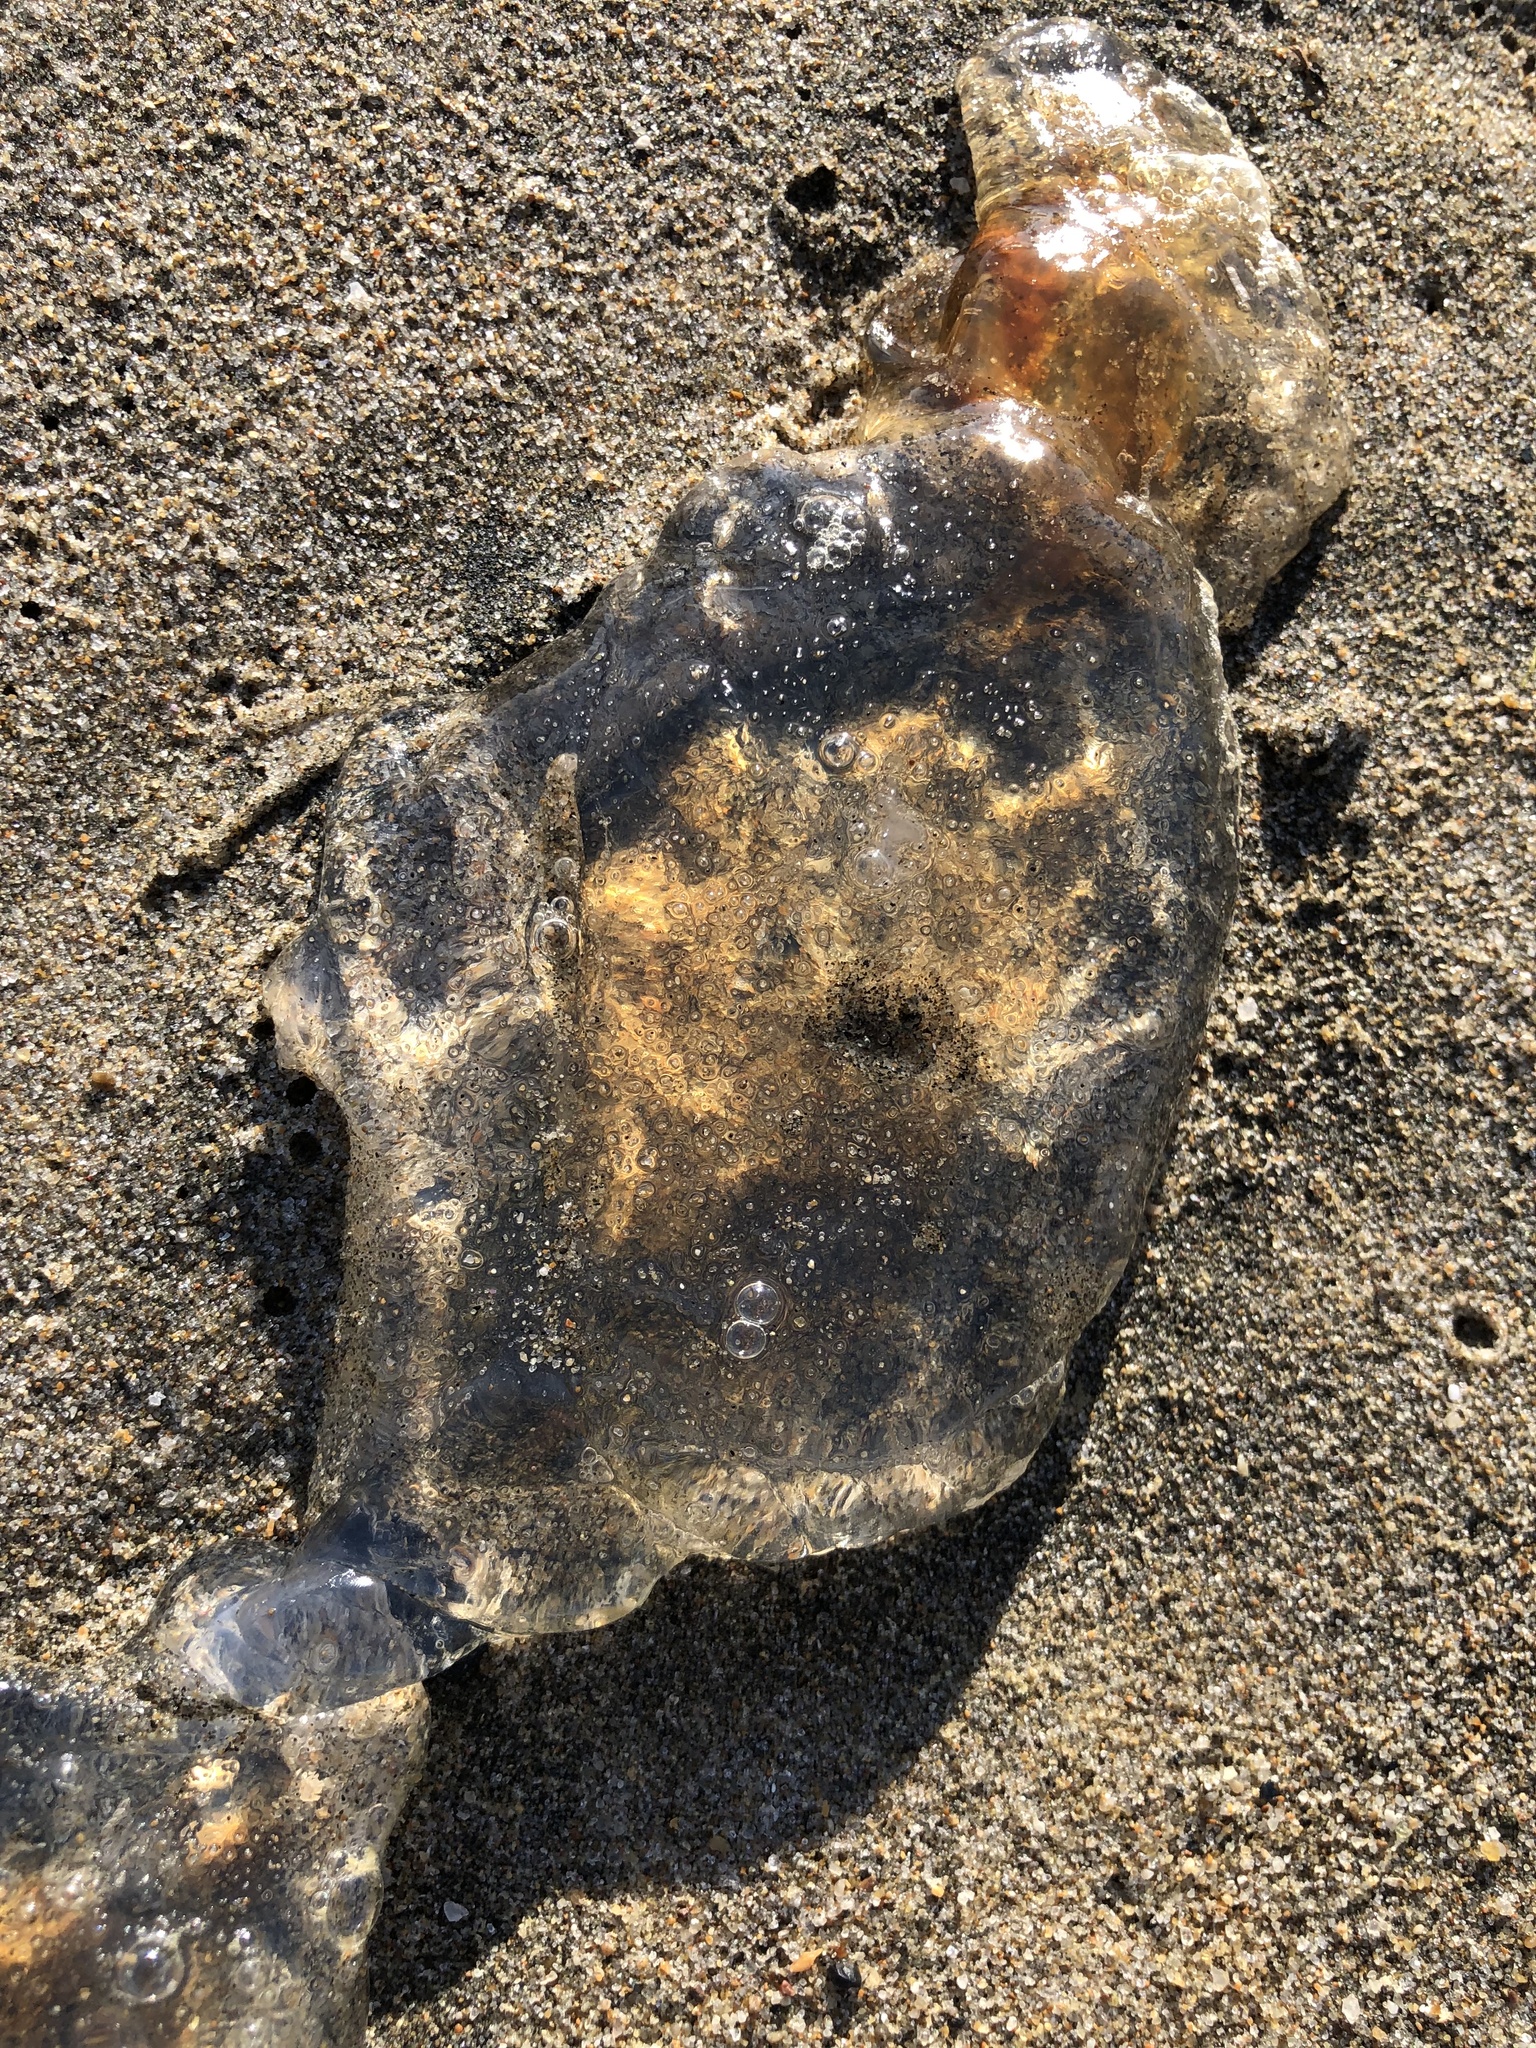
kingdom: Animalia
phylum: Cnidaria
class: Scyphozoa
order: Semaeostomeae
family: Pelagiidae
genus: Chrysaora
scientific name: Chrysaora fuscescens
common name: Sea nettle
